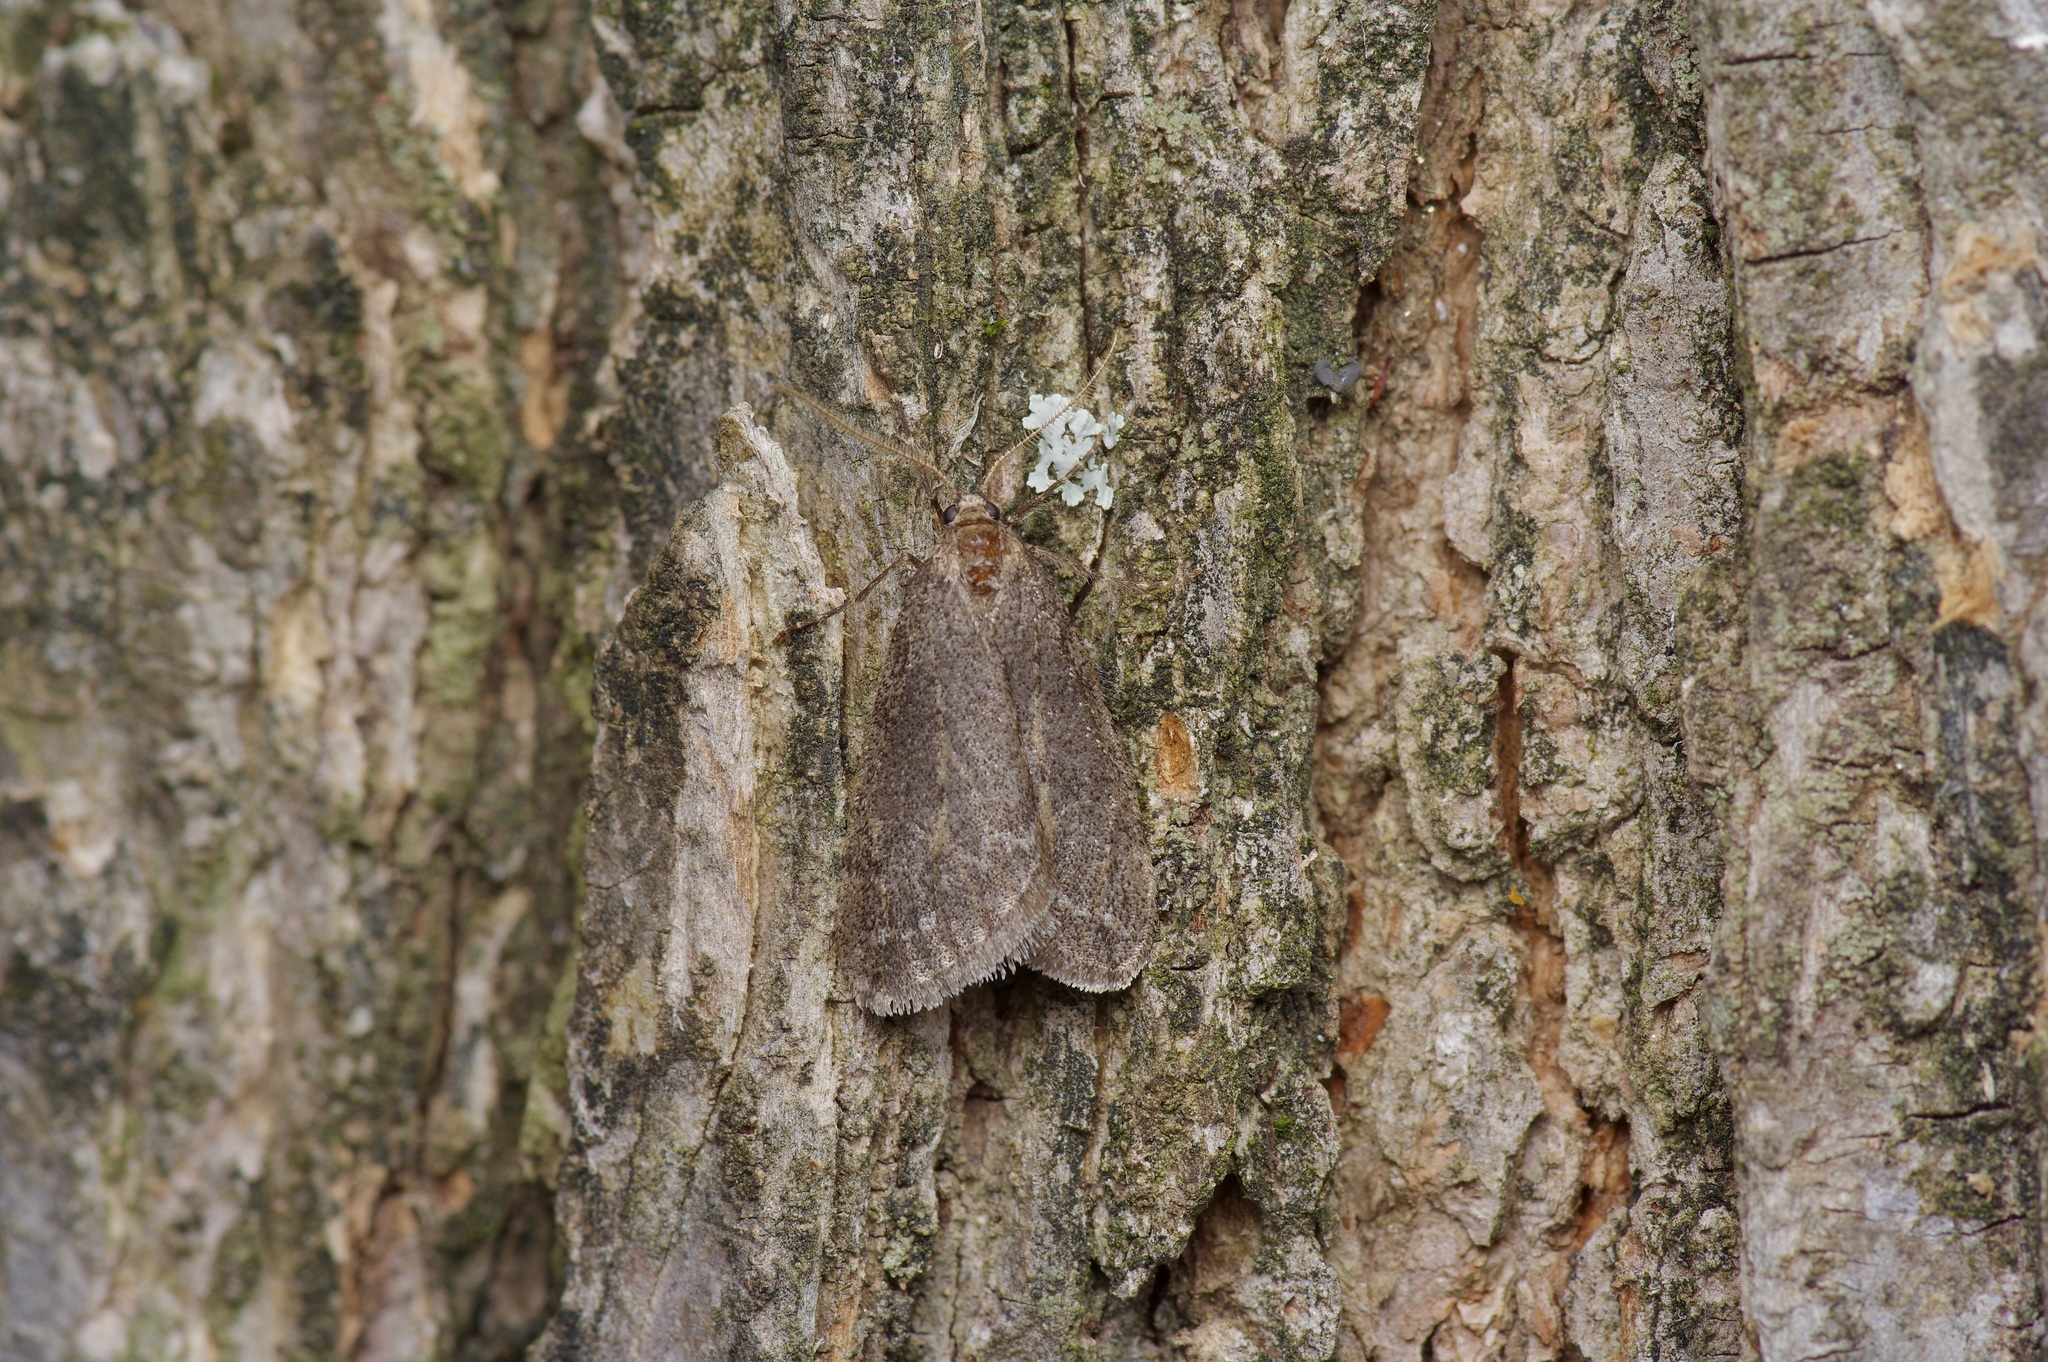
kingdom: Animalia
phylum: Arthropoda
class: Insecta
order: Lepidoptera
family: Geometridae
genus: Paleacrita
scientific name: Paleacrita vernata
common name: Spring cankerworm
